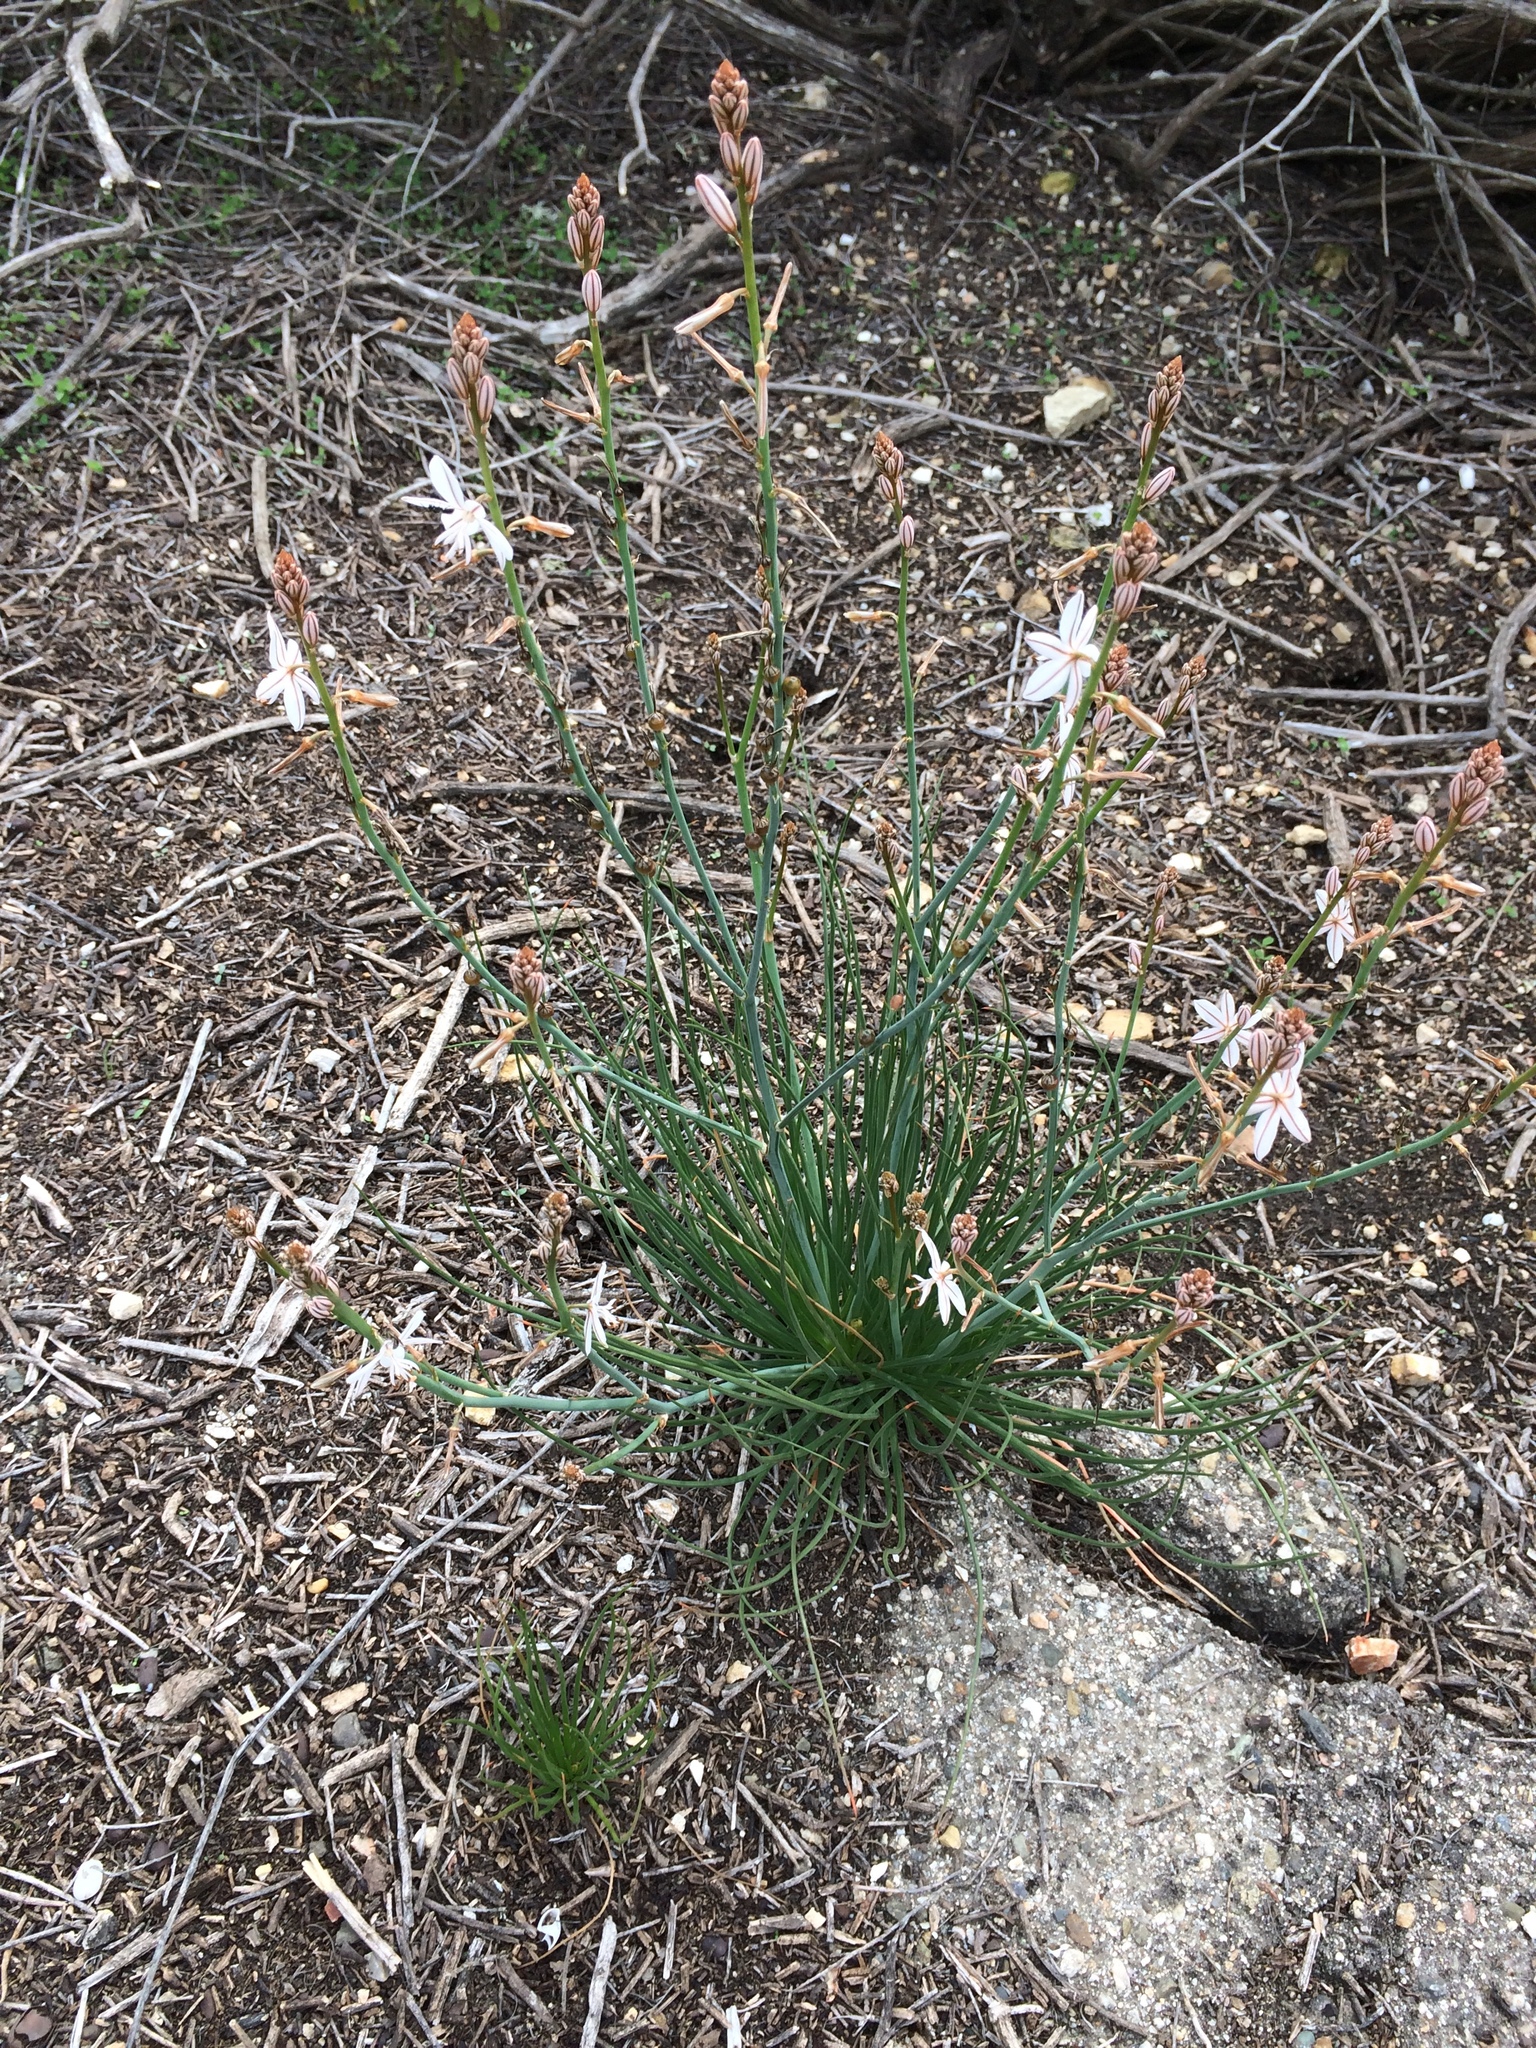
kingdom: Plantae
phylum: Tracheophyta
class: Liliopsida
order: Asparagales
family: Asphodelaceae
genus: Asphodelus
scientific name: Asphodelus fistulosus
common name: Onionweed
